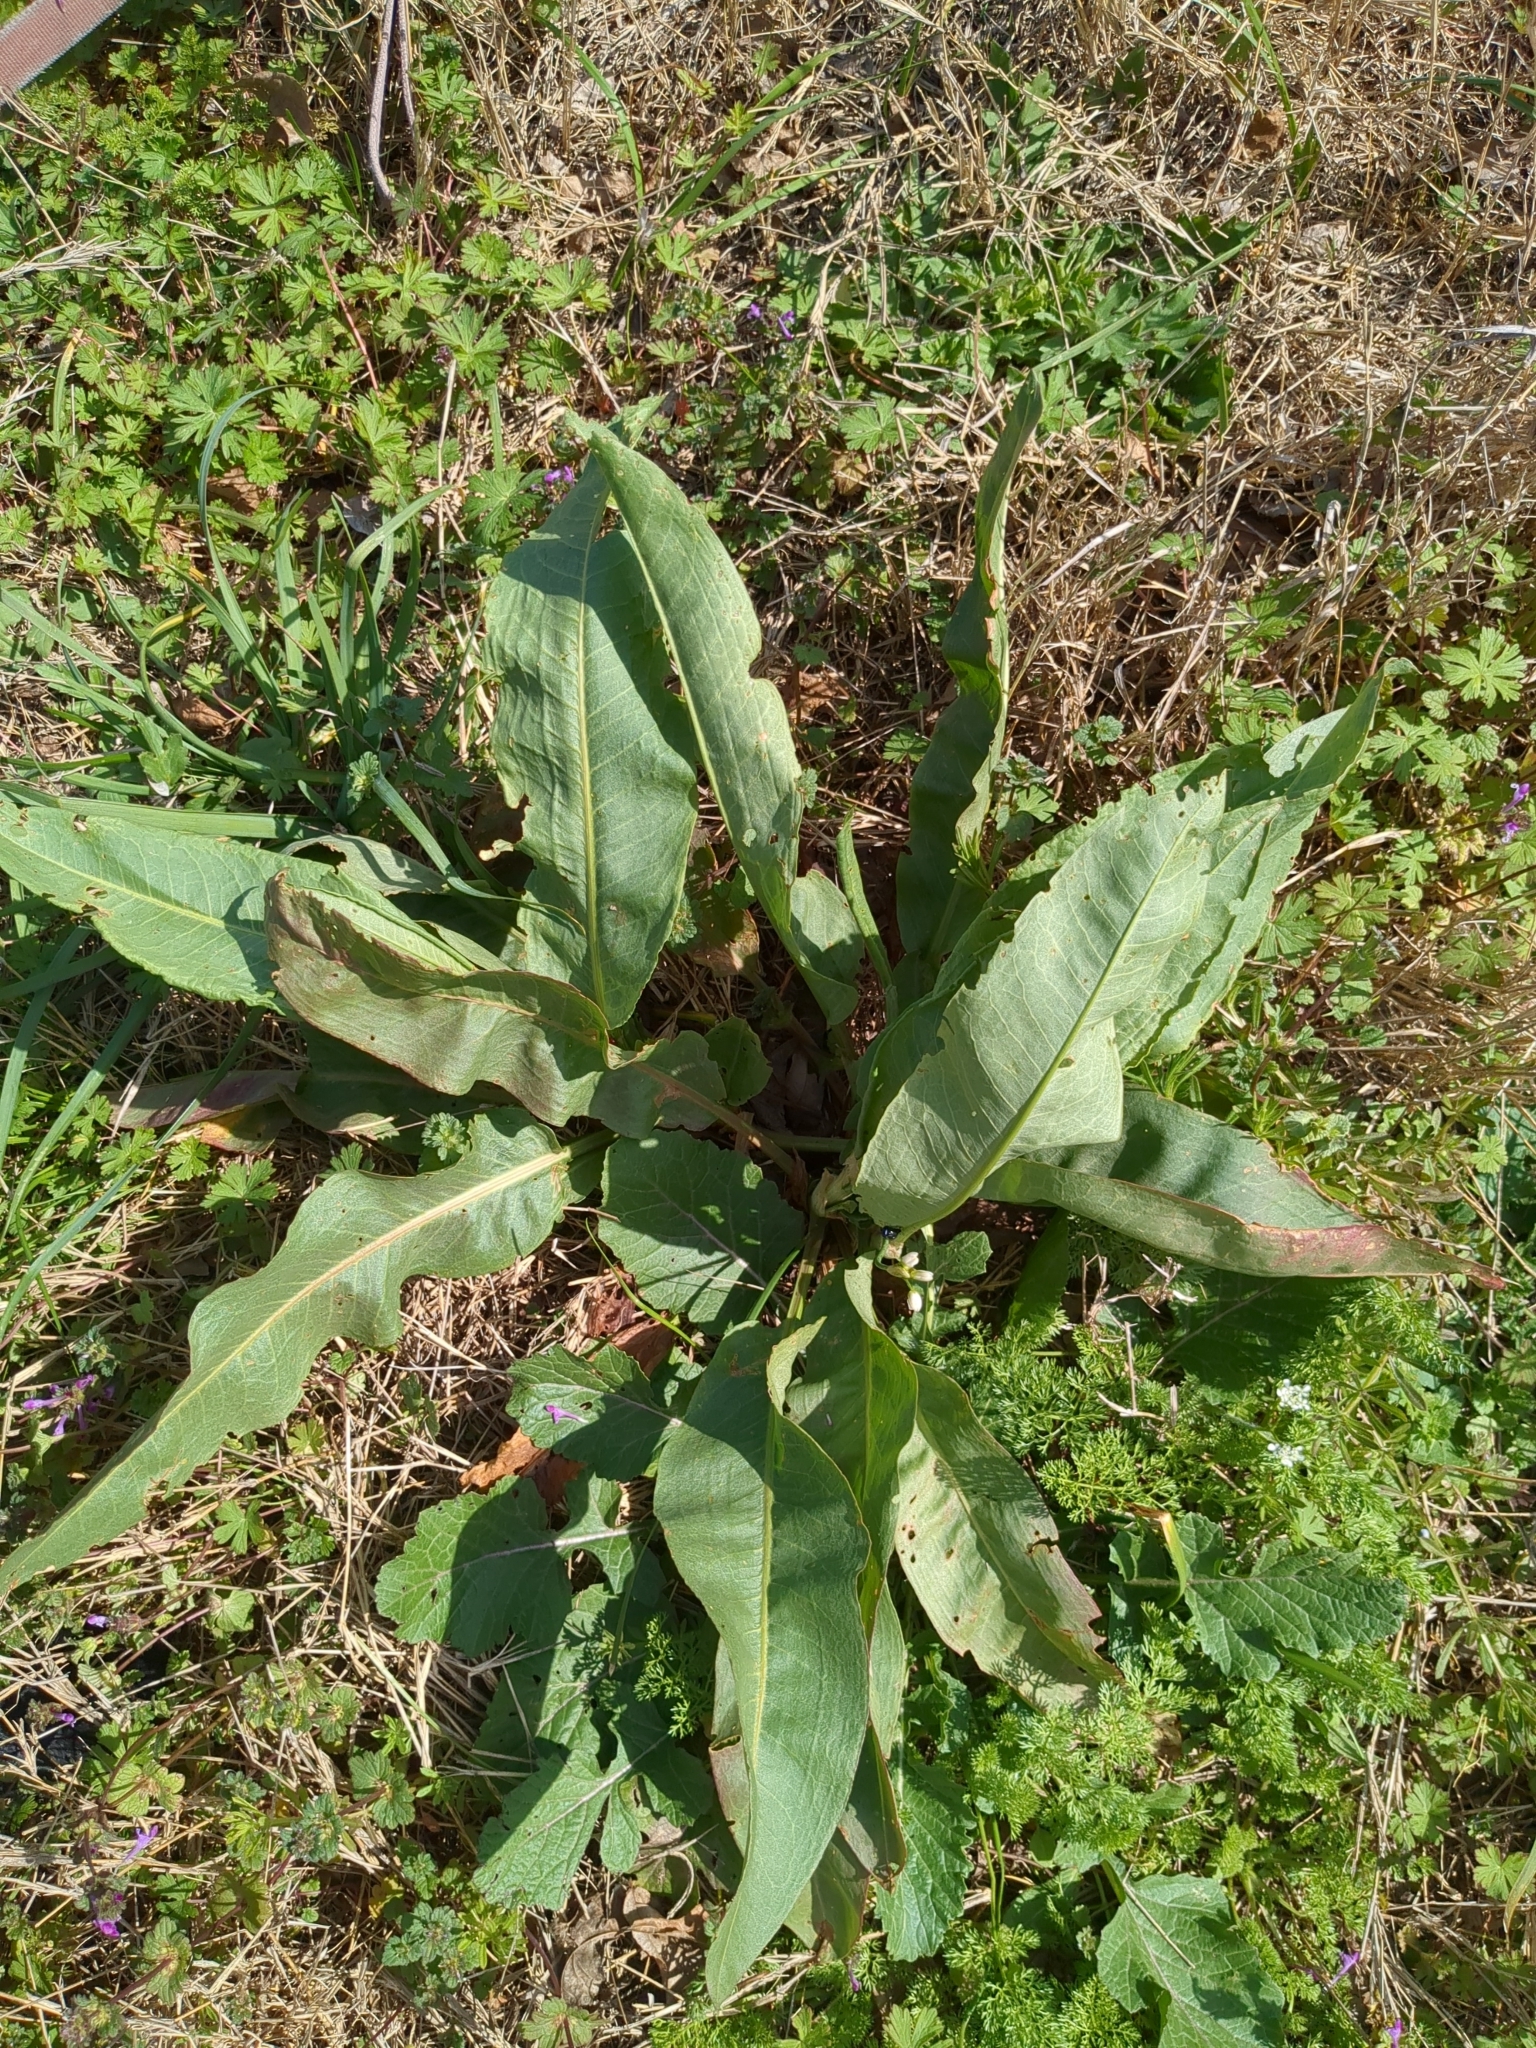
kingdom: Plantae
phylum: Tracheophyta
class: Magnoliopsida
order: Caryophyllales
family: Polygonaceae
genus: Rumex
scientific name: Rumex crispus
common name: Curled dock
